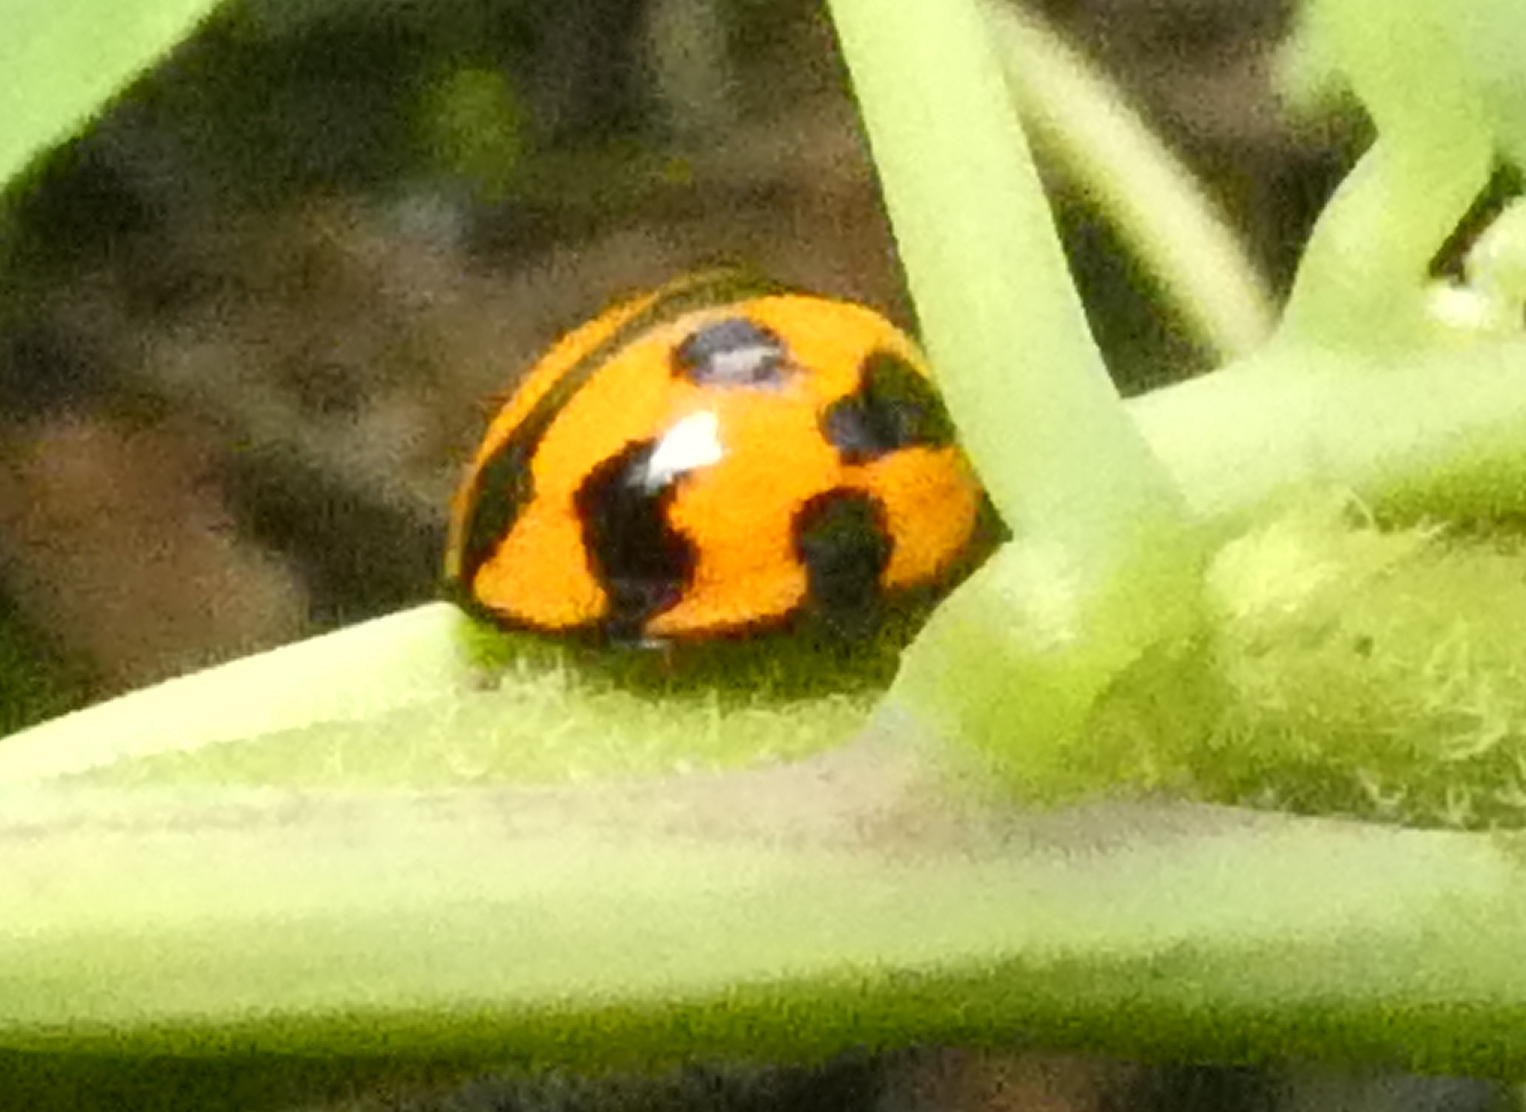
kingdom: Animalia
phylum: Arthropoda
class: Insecta
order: Coleoptera
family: Coccinellidae
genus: Coelophora
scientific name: Coelophora inaequalis
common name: Common australian lady beetle
